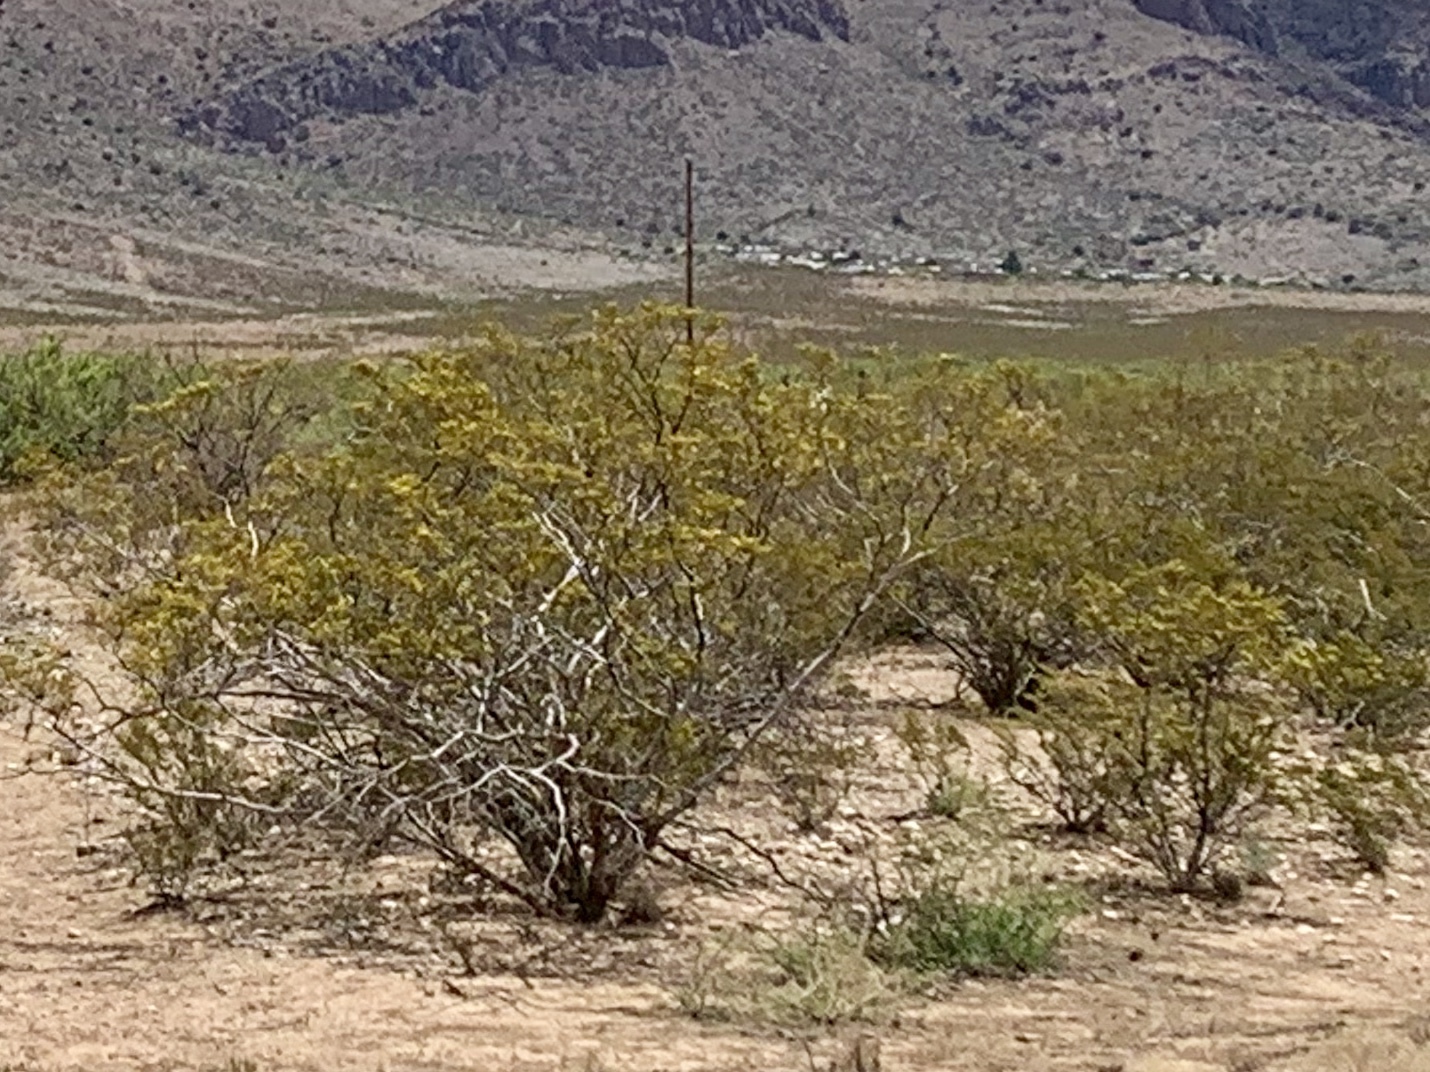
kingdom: Plantae
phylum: Tracheophyta
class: Magnoliopsida
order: Zygophyllales
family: Zygophyllaceae
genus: Larrea
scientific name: Larrea tridentata
